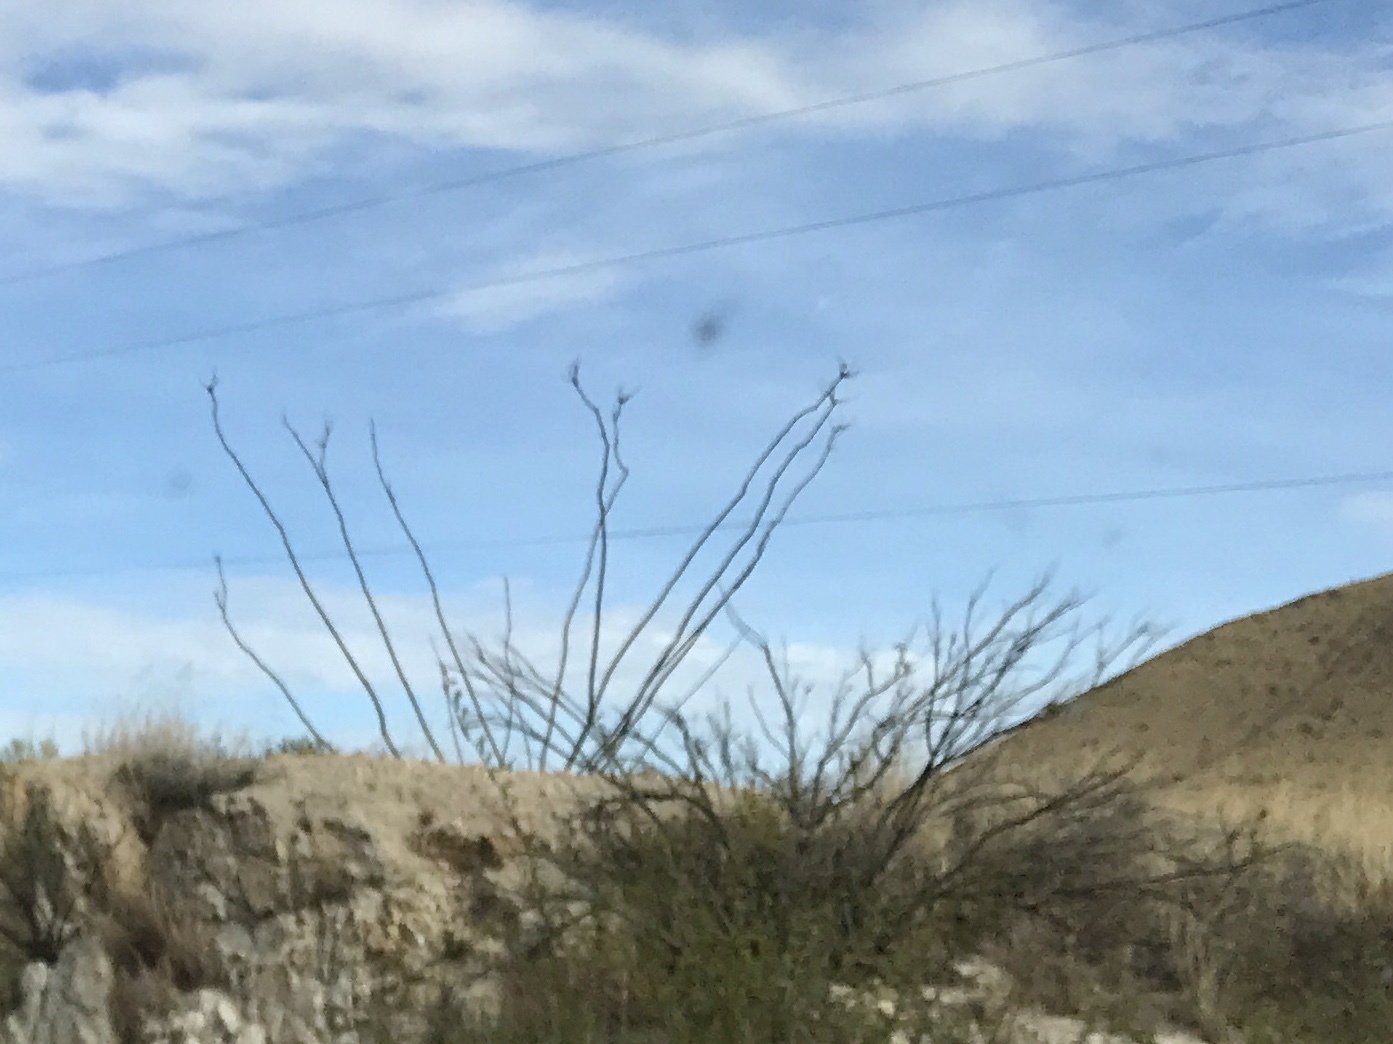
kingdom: Plantae
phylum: Tracheophyta
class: Magnoliopsida
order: Ericales
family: Fouquieriaceae
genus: Fouquieria
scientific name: Fouquieria splendens
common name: Vine-cactus
